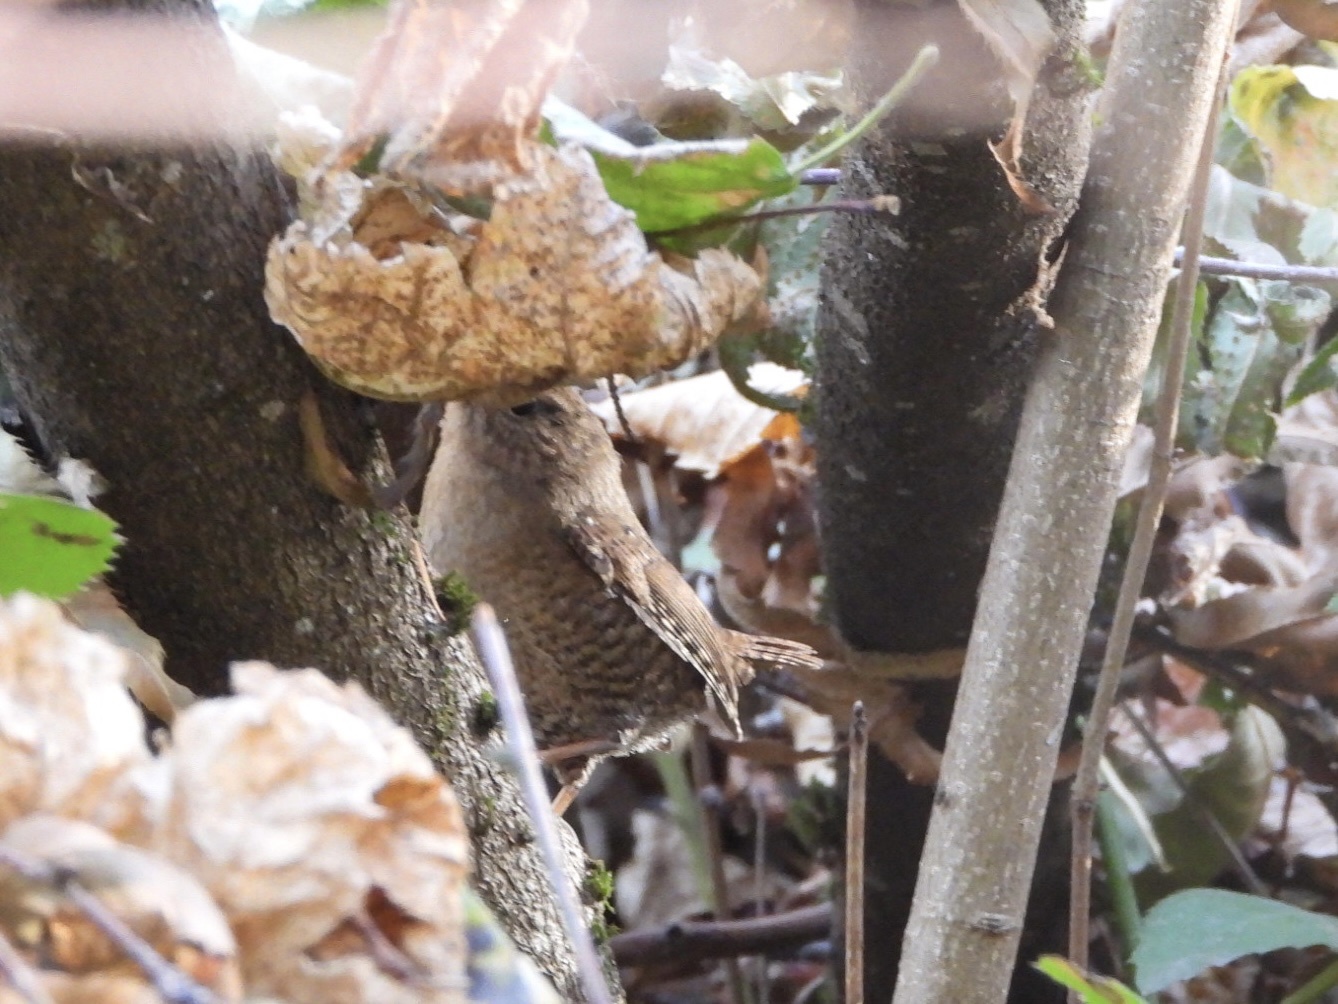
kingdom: Animalia
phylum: Chordata
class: Aves
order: Passeriformes
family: Troglodytidae
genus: Troglodytes
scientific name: Troglodytes pacificus
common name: Pacific wren
